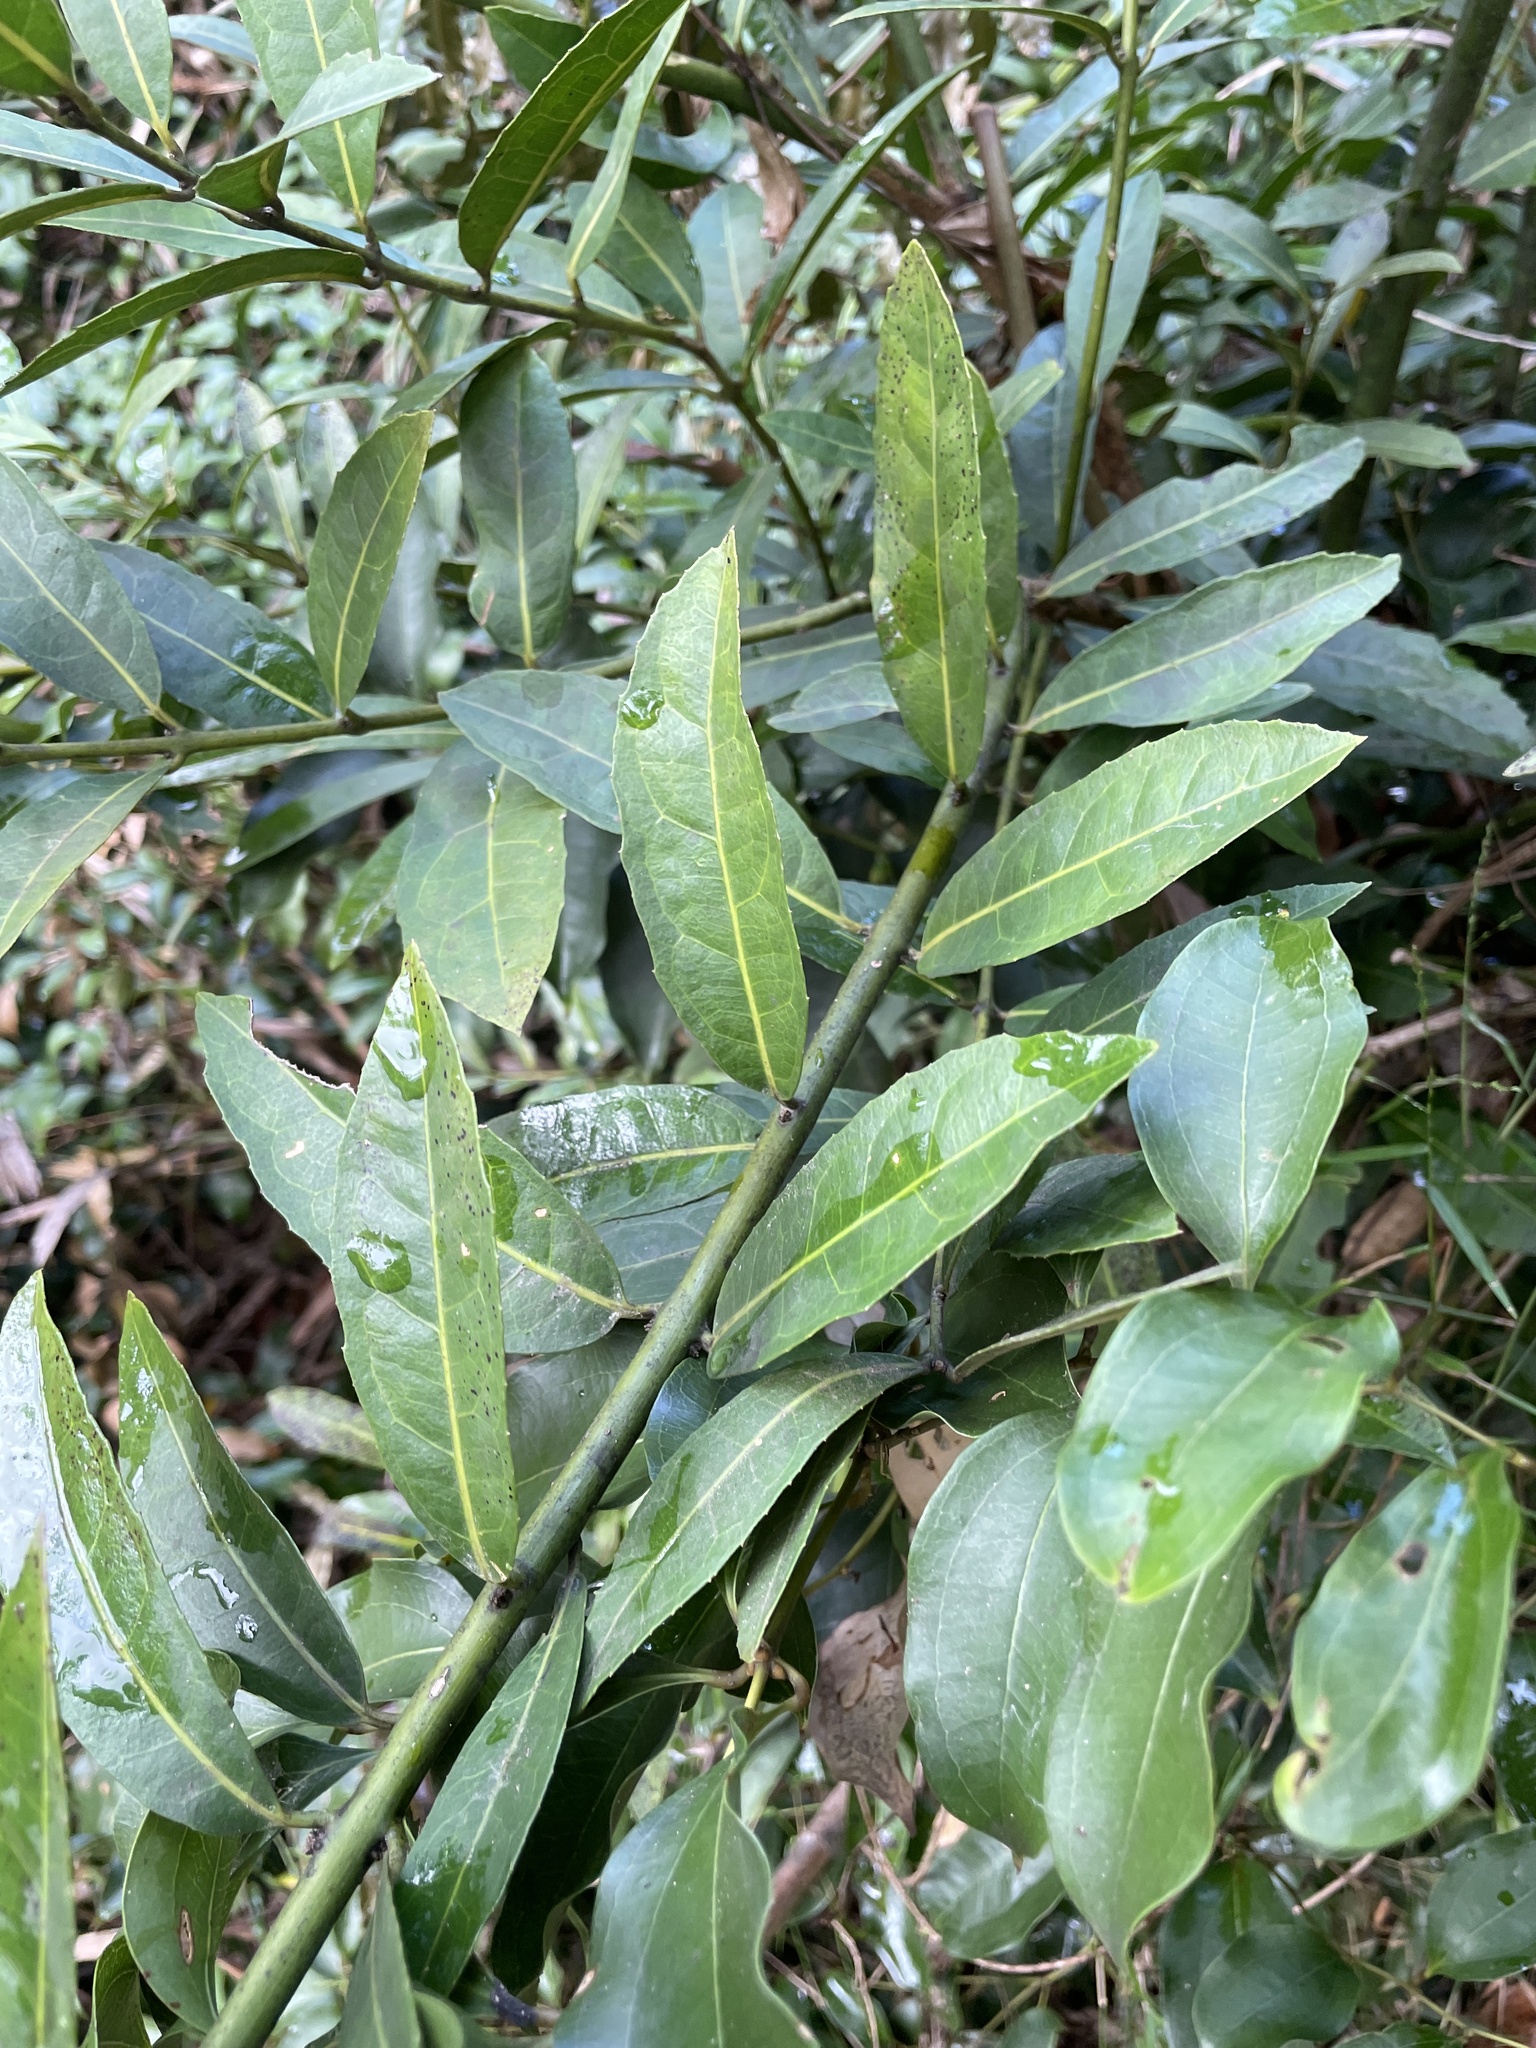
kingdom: Plantae
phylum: Tracheophyta
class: Magnoliopsida
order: Laurales
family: Monimiaceae
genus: Wilkiea
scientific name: Wilkiea hugeliana
